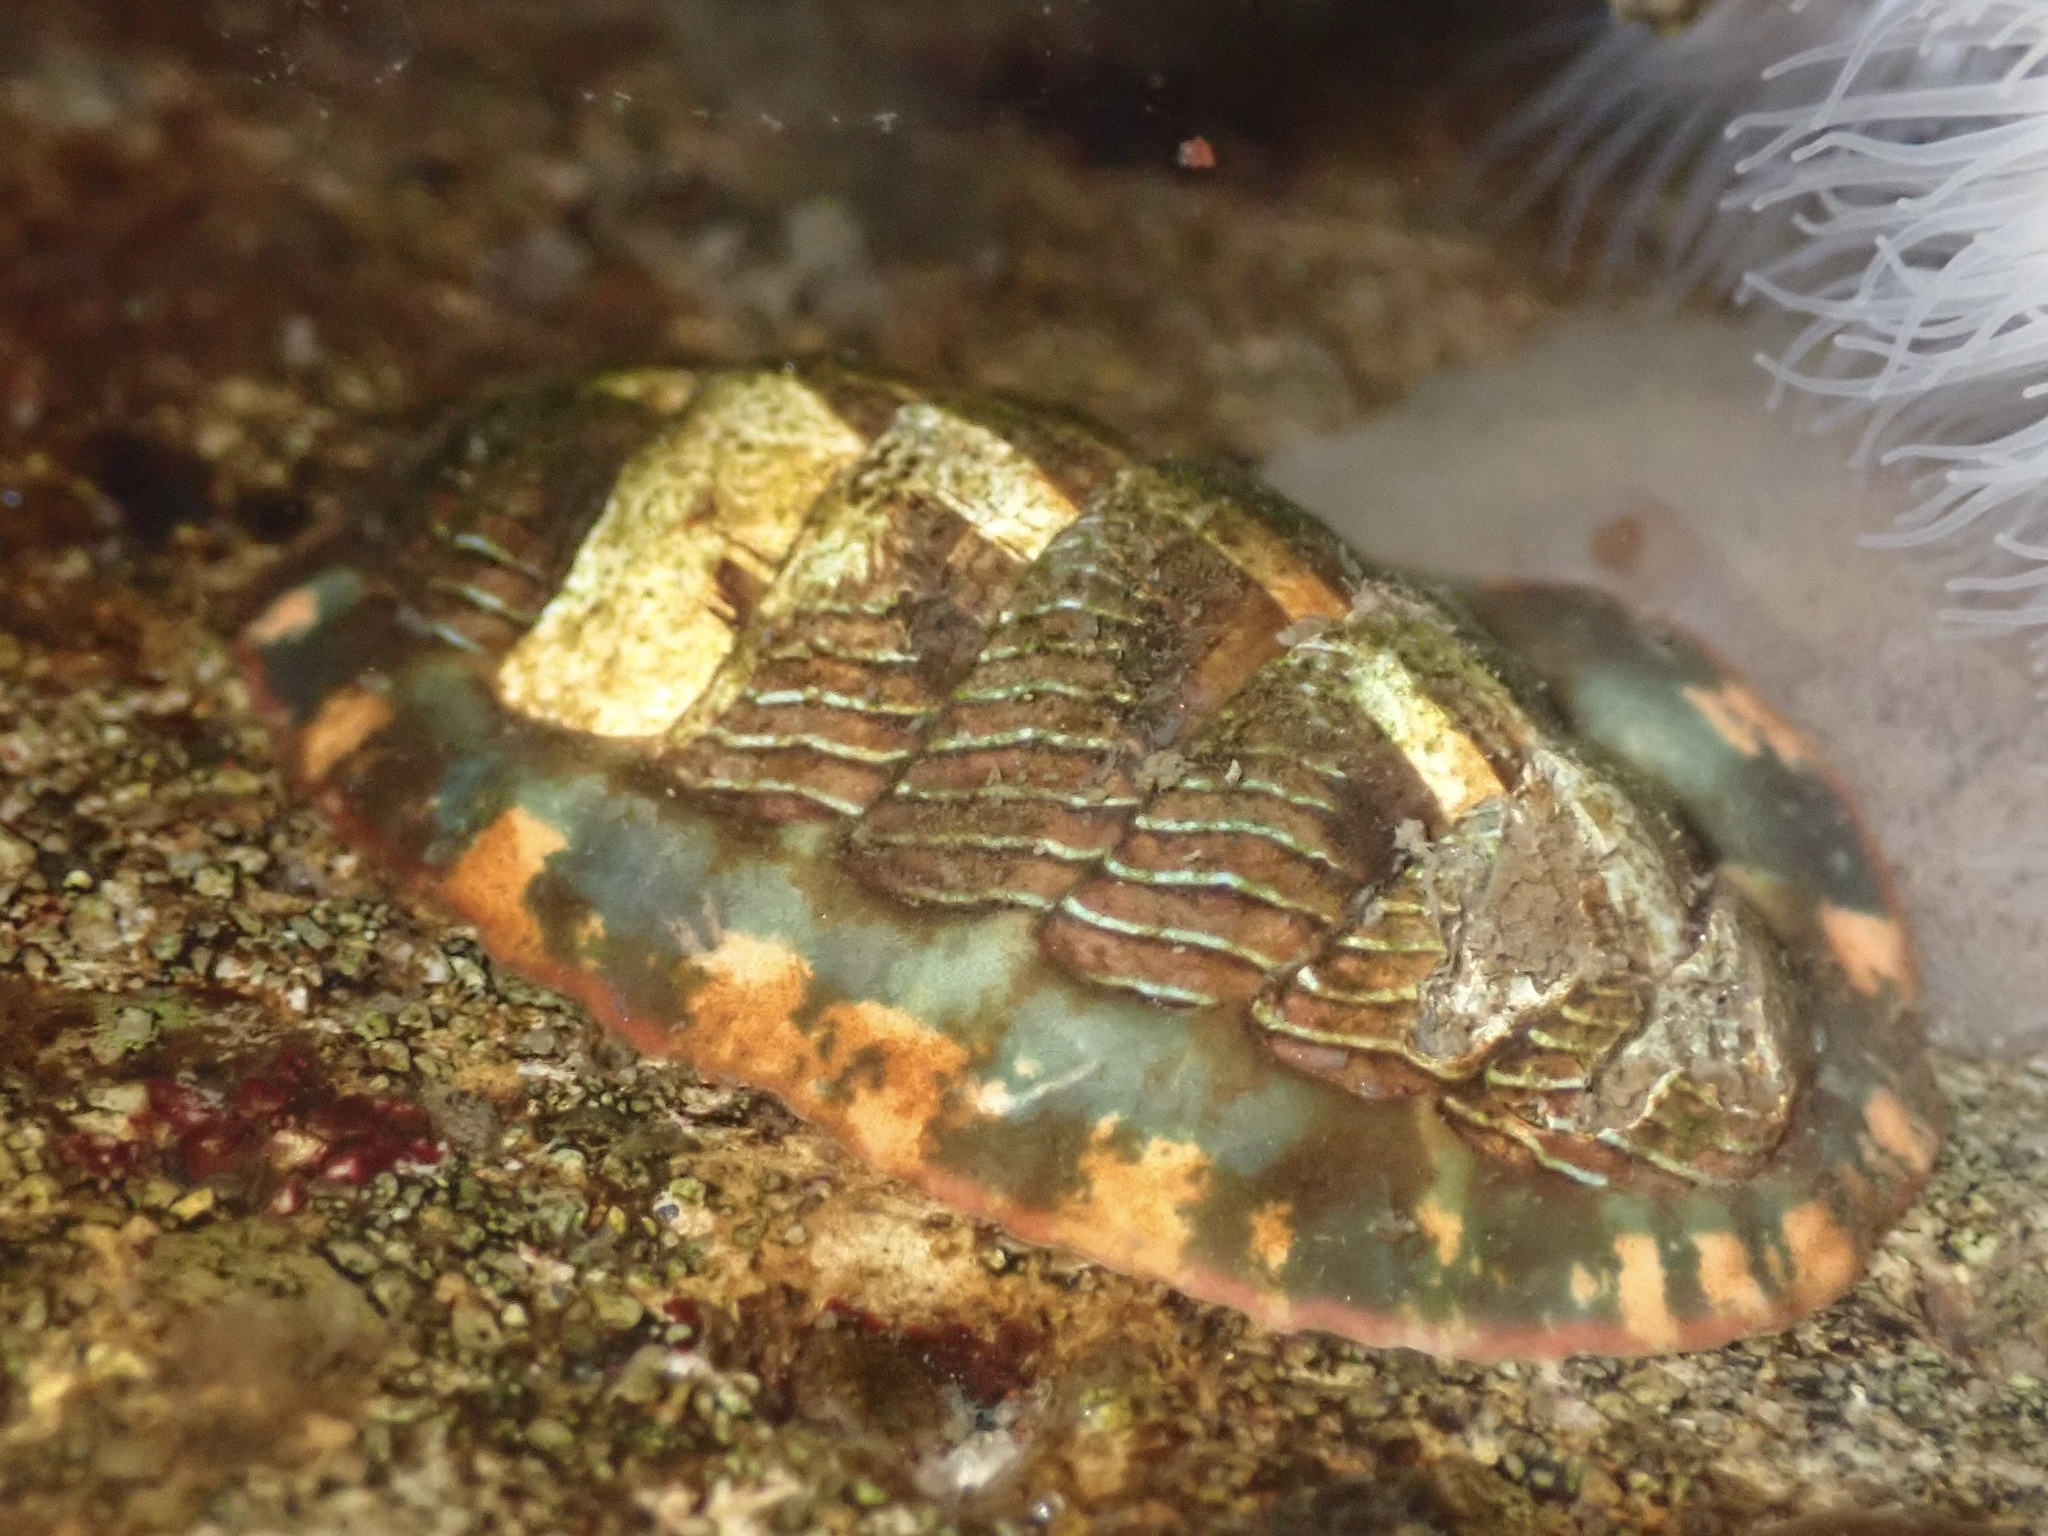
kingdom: Animalia
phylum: Mollusca
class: Polyplacophora
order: Chitonida
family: Tonicellidae
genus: Tonicella
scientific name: Tonicella lineata
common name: Lined chiton
